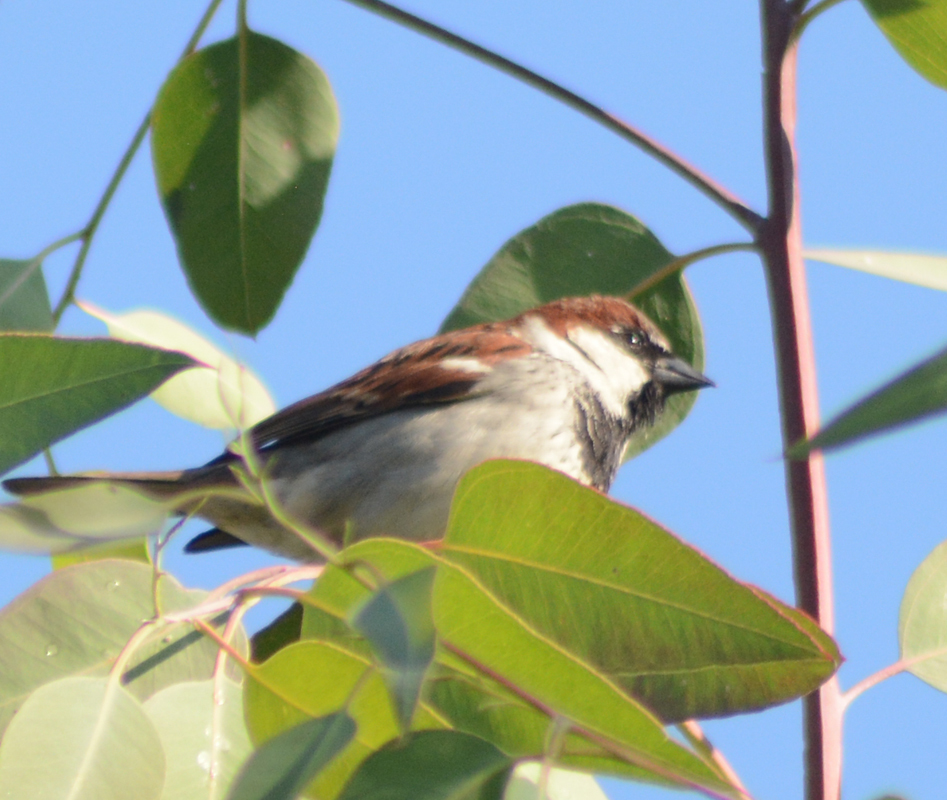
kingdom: Animalia
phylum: Chordata
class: Aves
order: Passeriformes
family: Passeridae
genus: Passer
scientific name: Passer domesticus
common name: House sparrow
